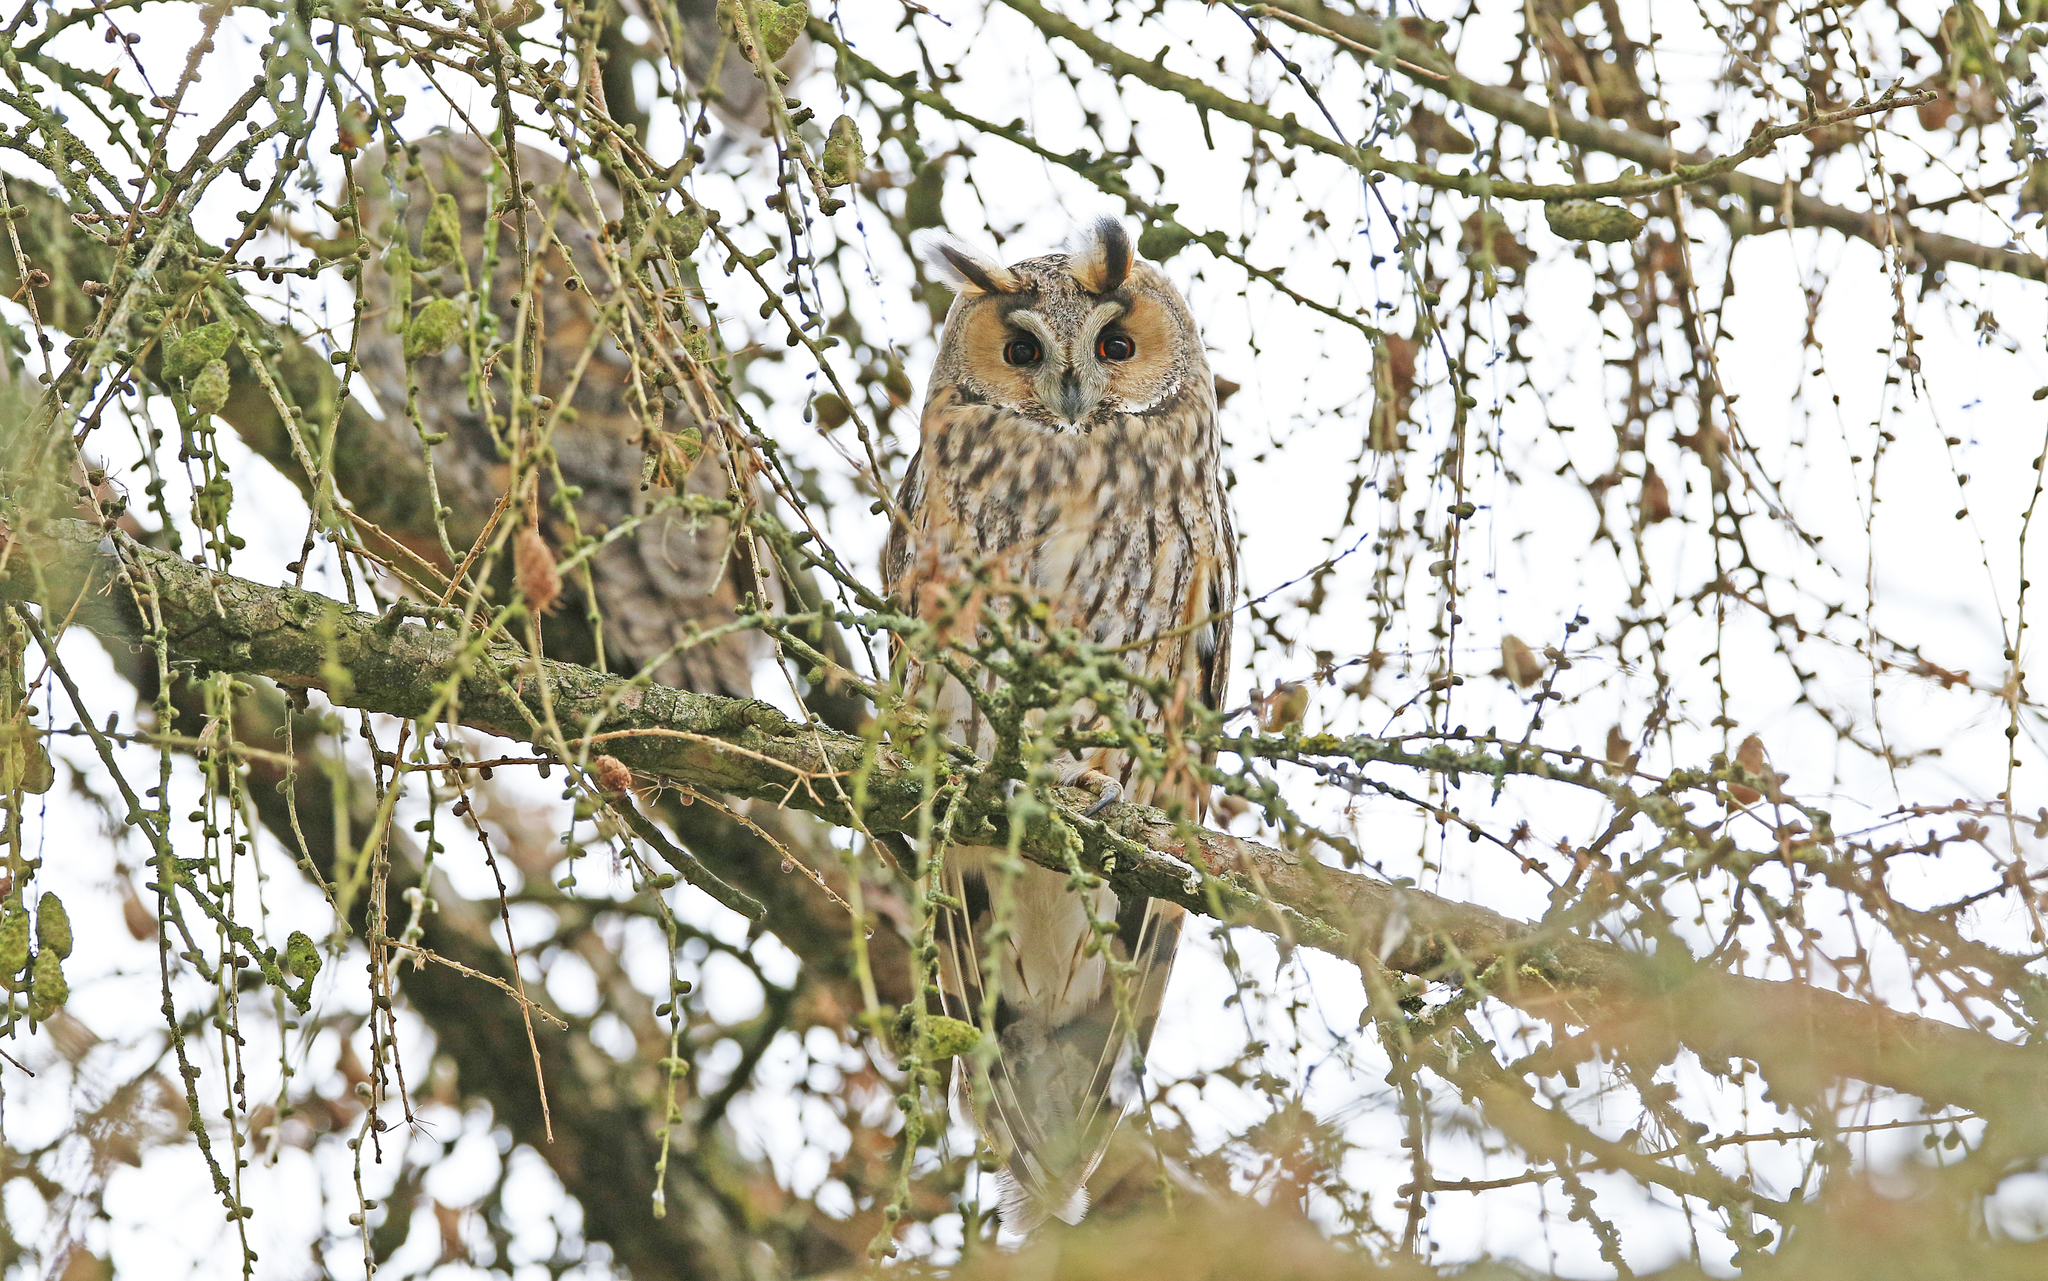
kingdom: Animalia
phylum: Chordata
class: Aves
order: Strigiformes
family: Strigidae
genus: Asio
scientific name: Asio otus
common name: Long-eared owl
